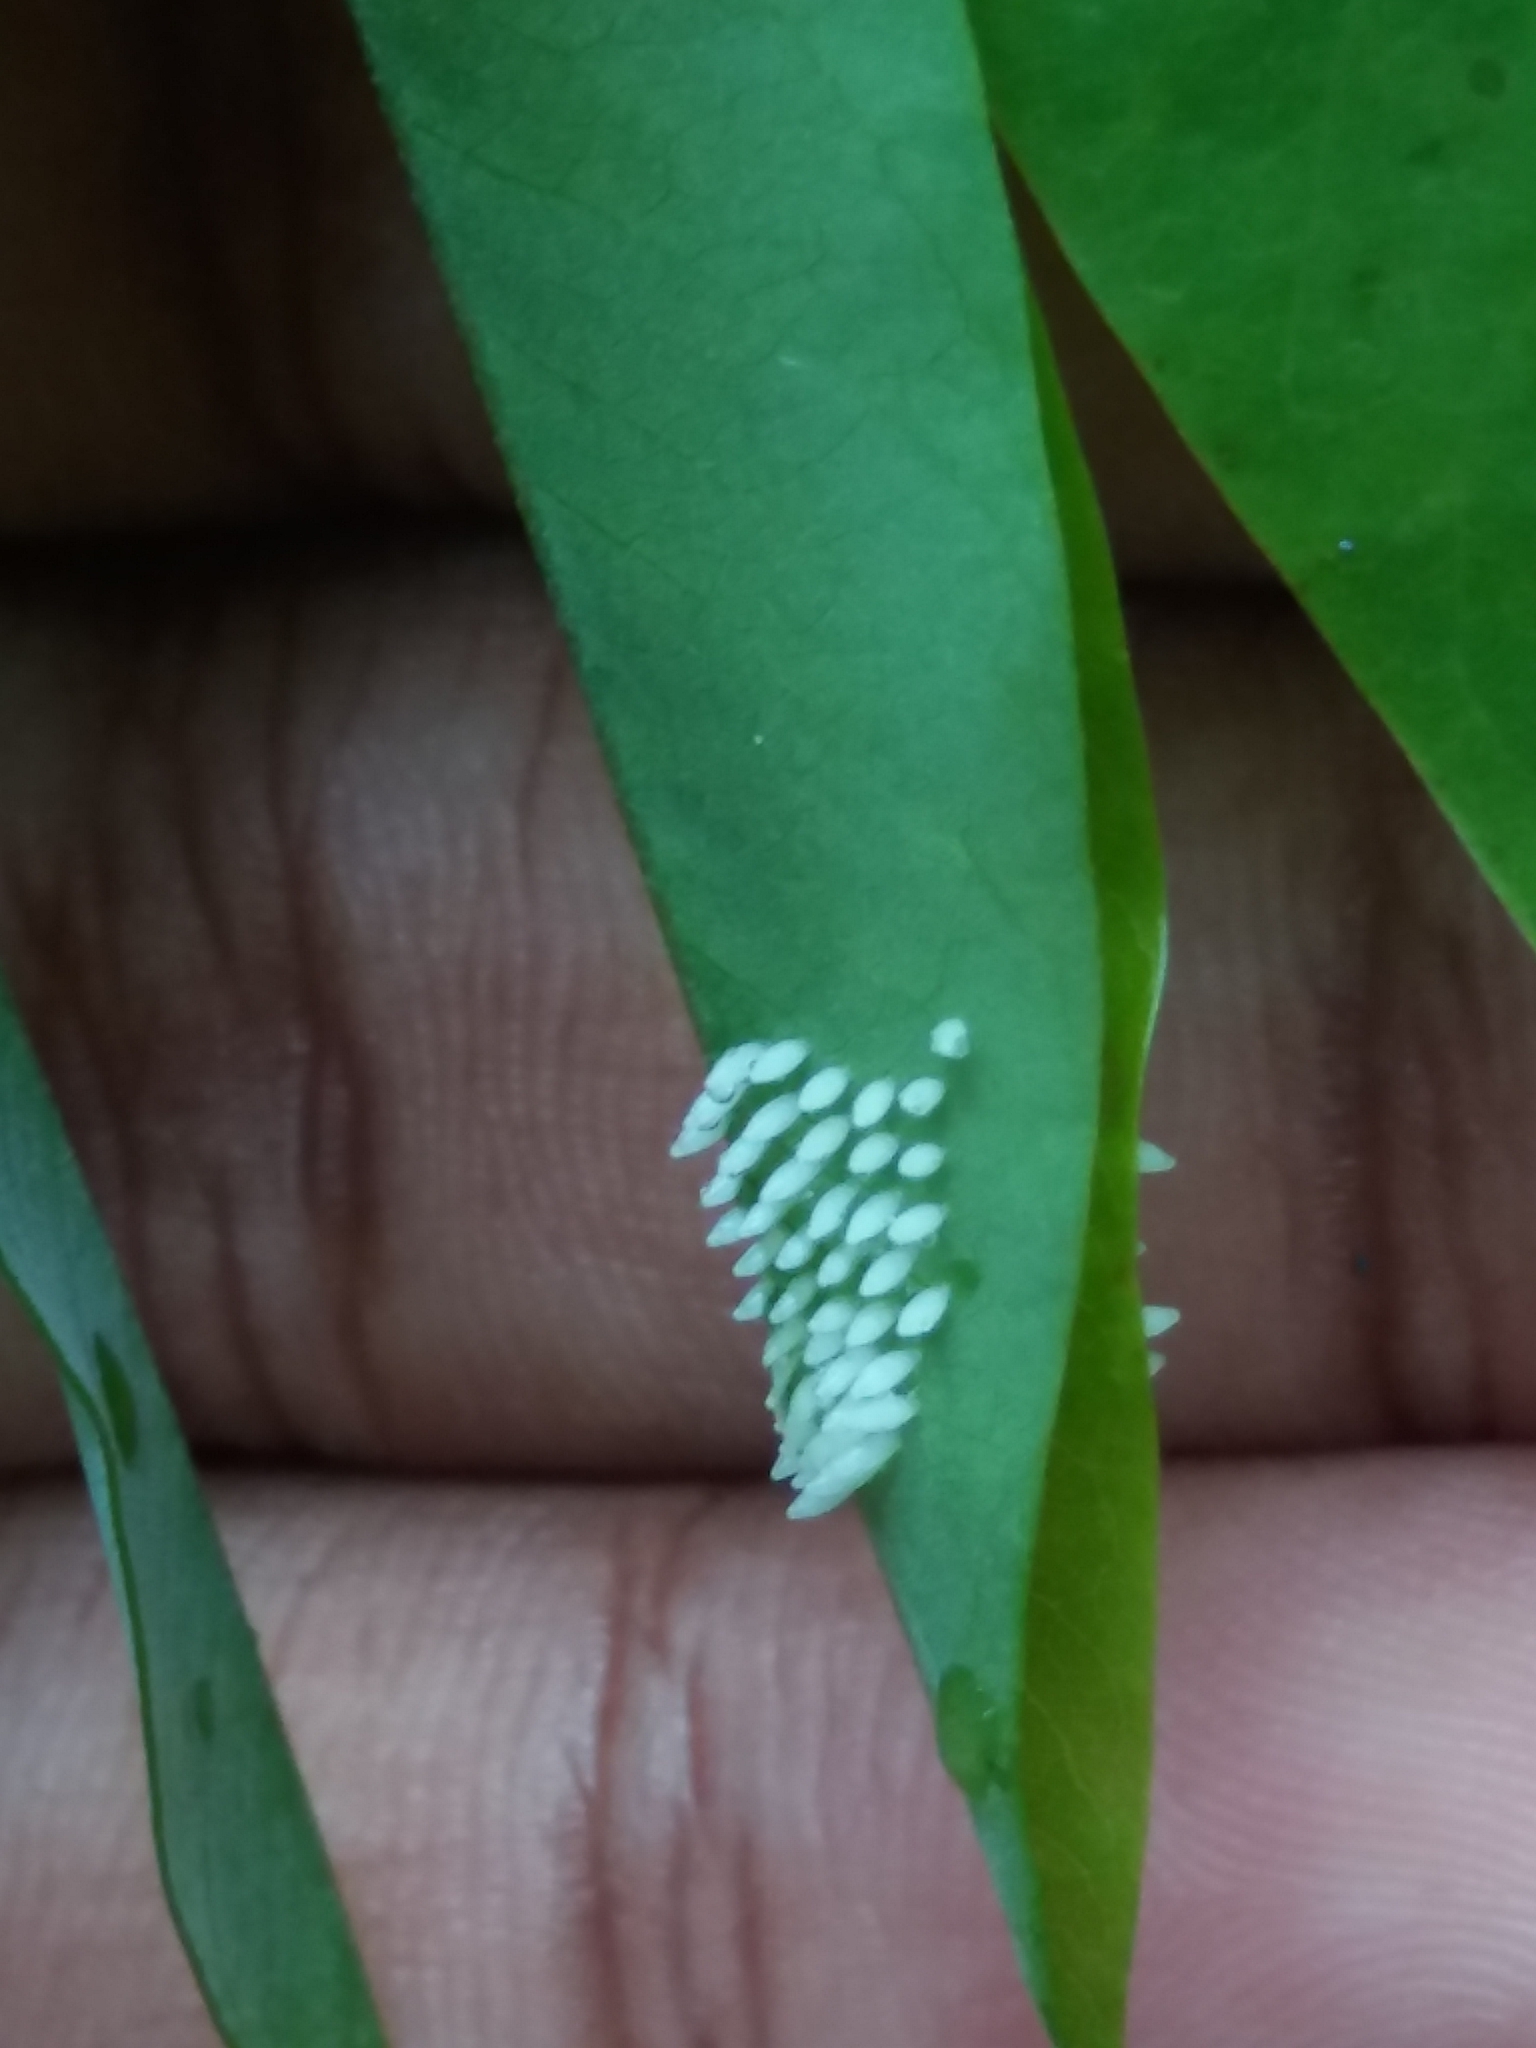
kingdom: Animalia
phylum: Arthropoda
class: Insecta
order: Lepidoptera
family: Pieridae
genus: Eurema
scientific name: Eurema blanda
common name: Three-spot grass yellow
